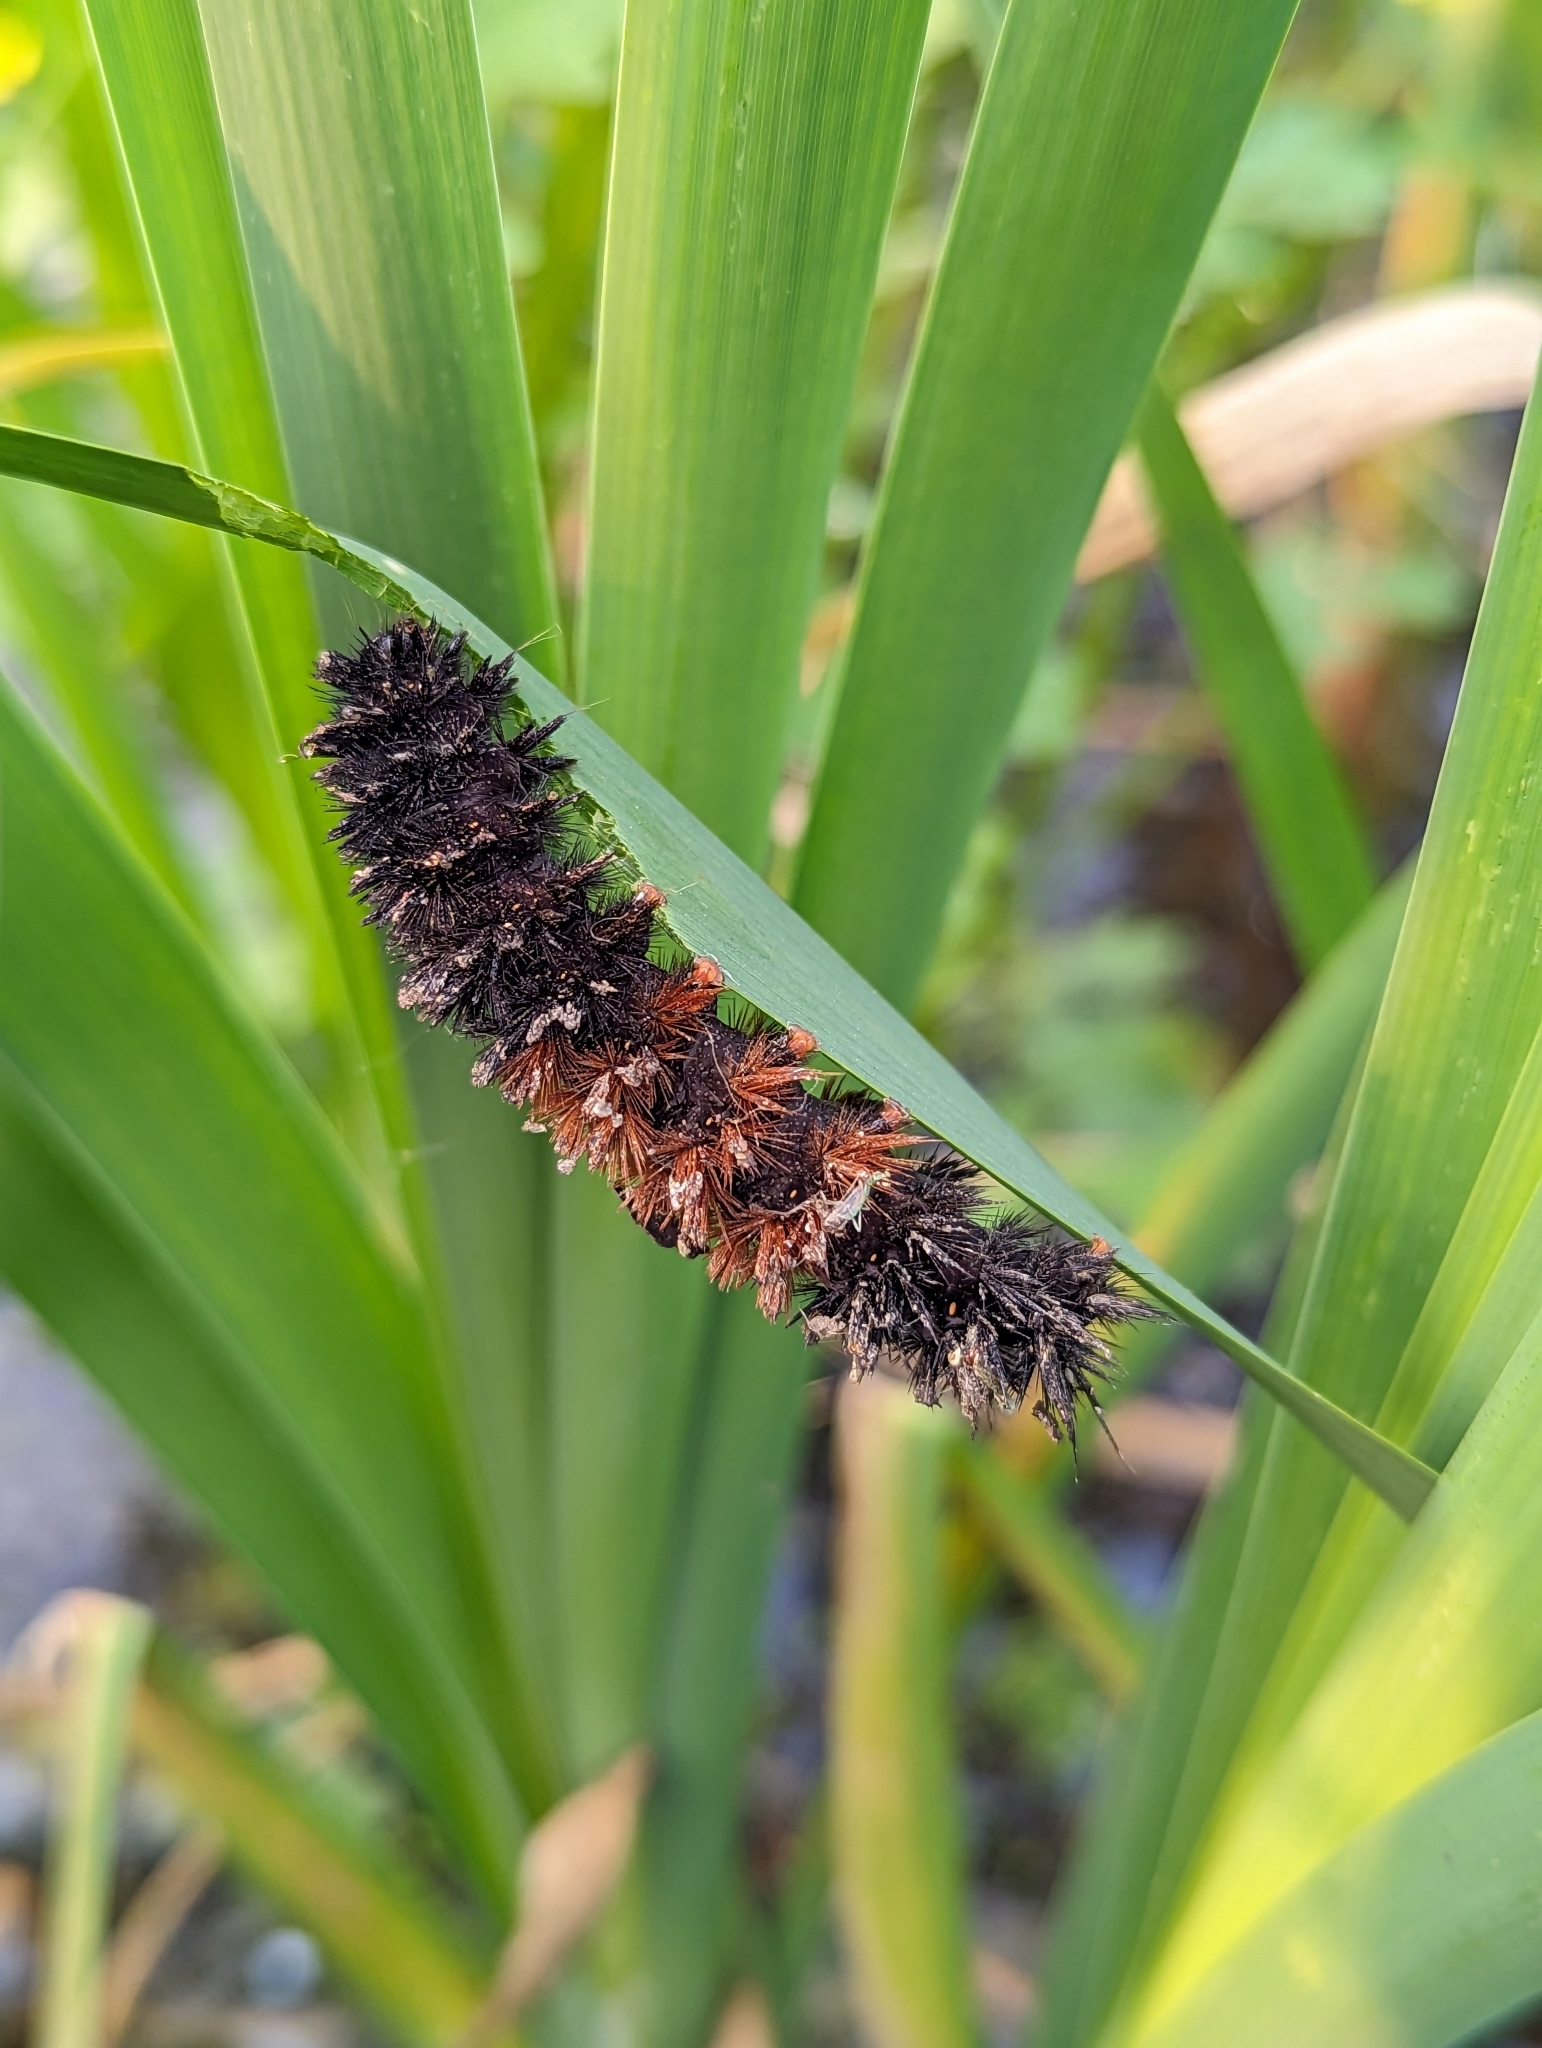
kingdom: Animalia
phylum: Arthropoda
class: Insecta
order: Lepidoptera
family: Erebidae
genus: Pyrrharctia
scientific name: Pyrrharctia isabella
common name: Isabella tiger moth
